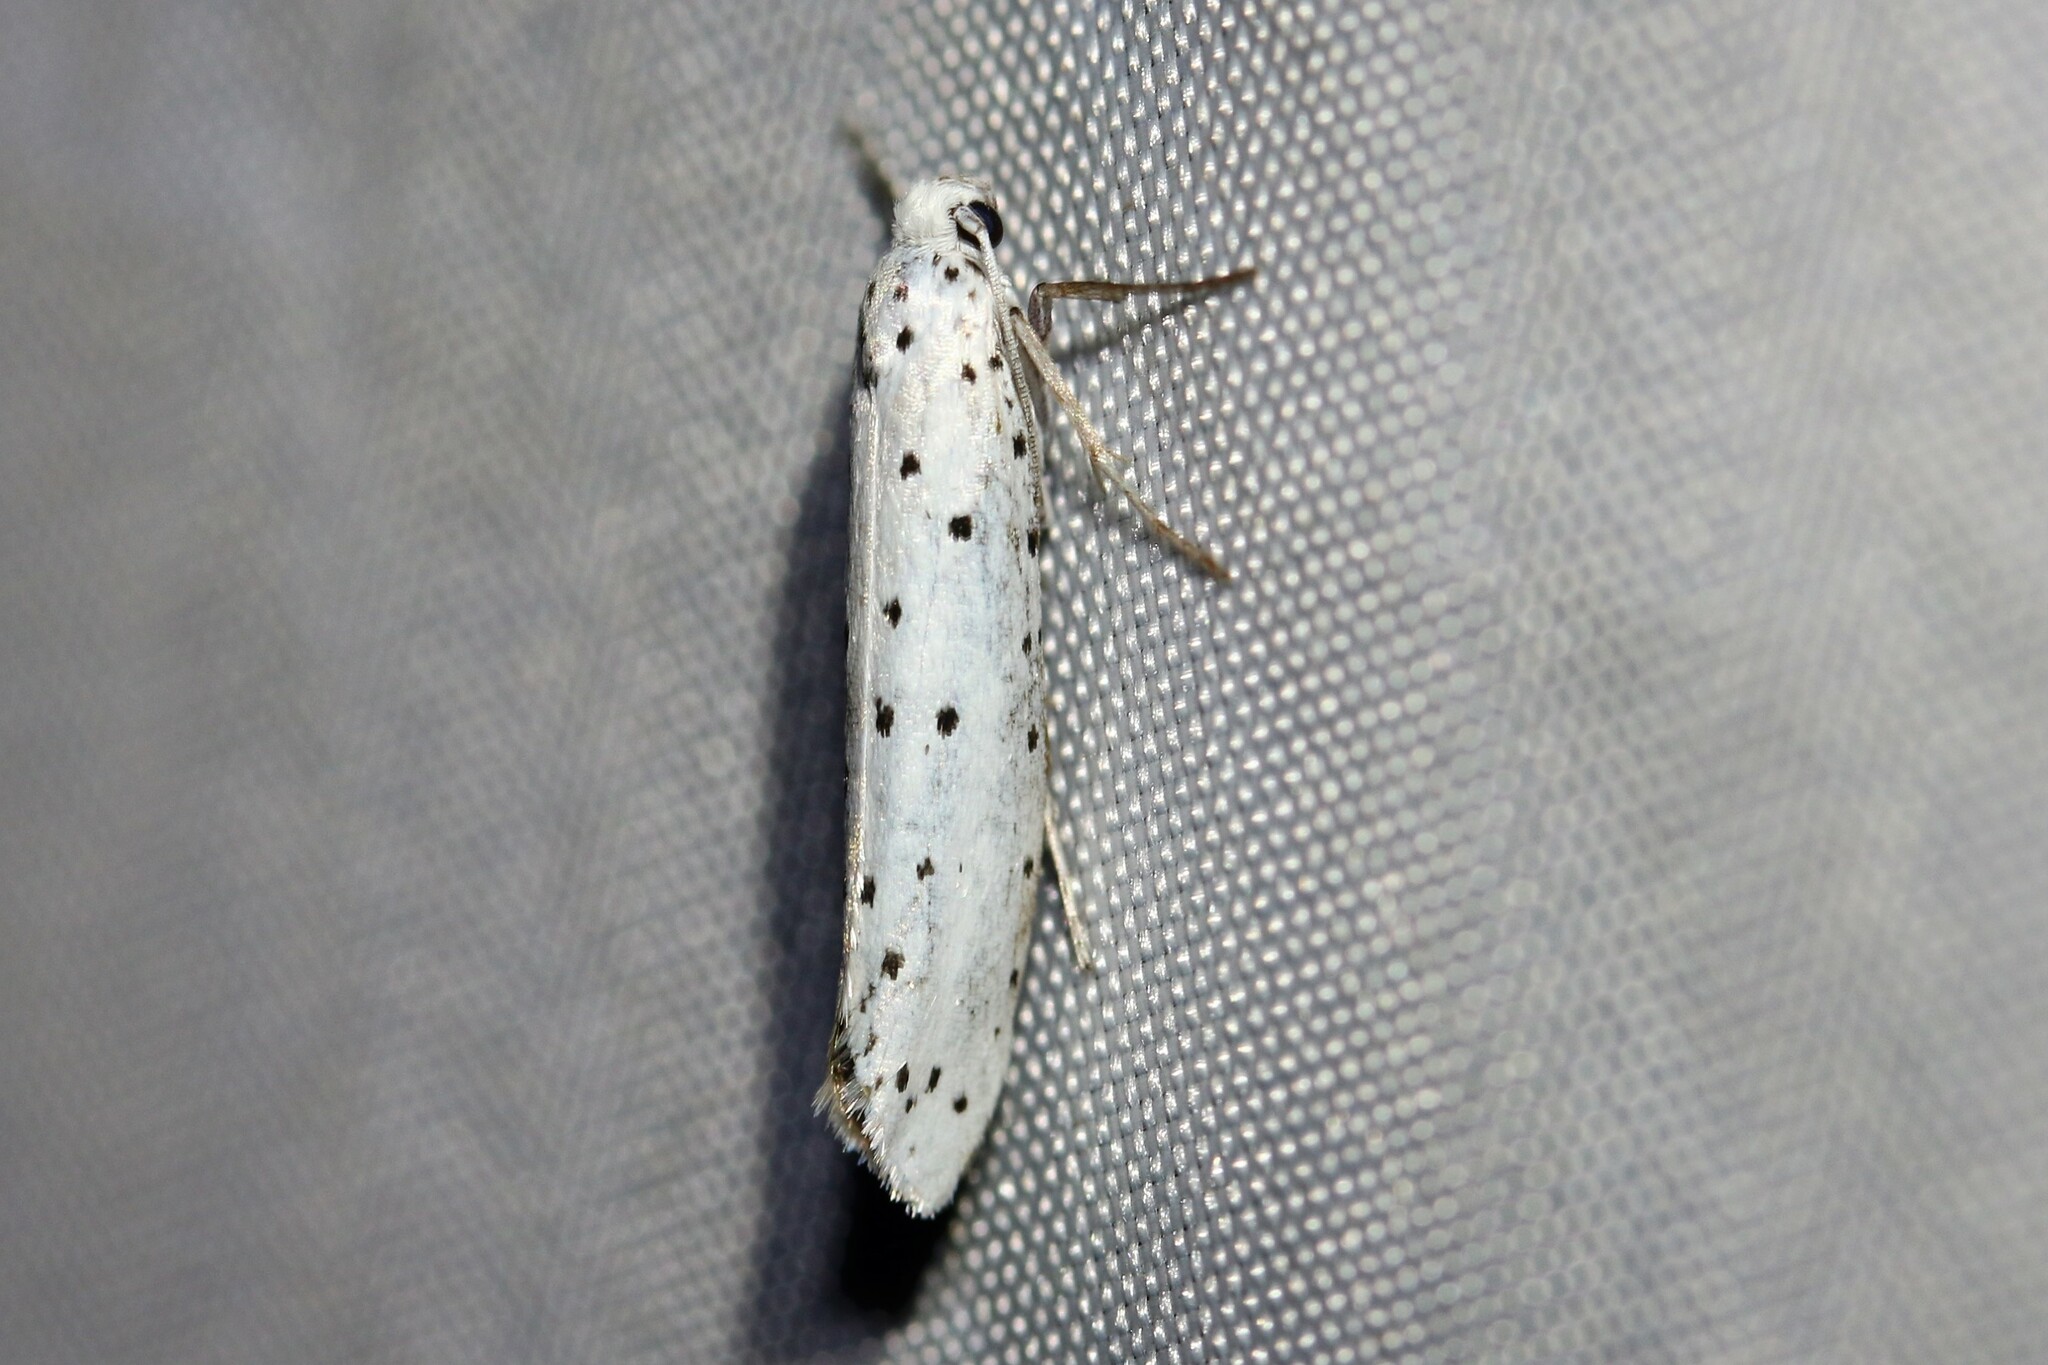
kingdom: Animalia
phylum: Arthropoda
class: Insecta
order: Lepidoptera
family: Yponomeutidae
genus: Yponomeuta
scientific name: Yponomeuta
